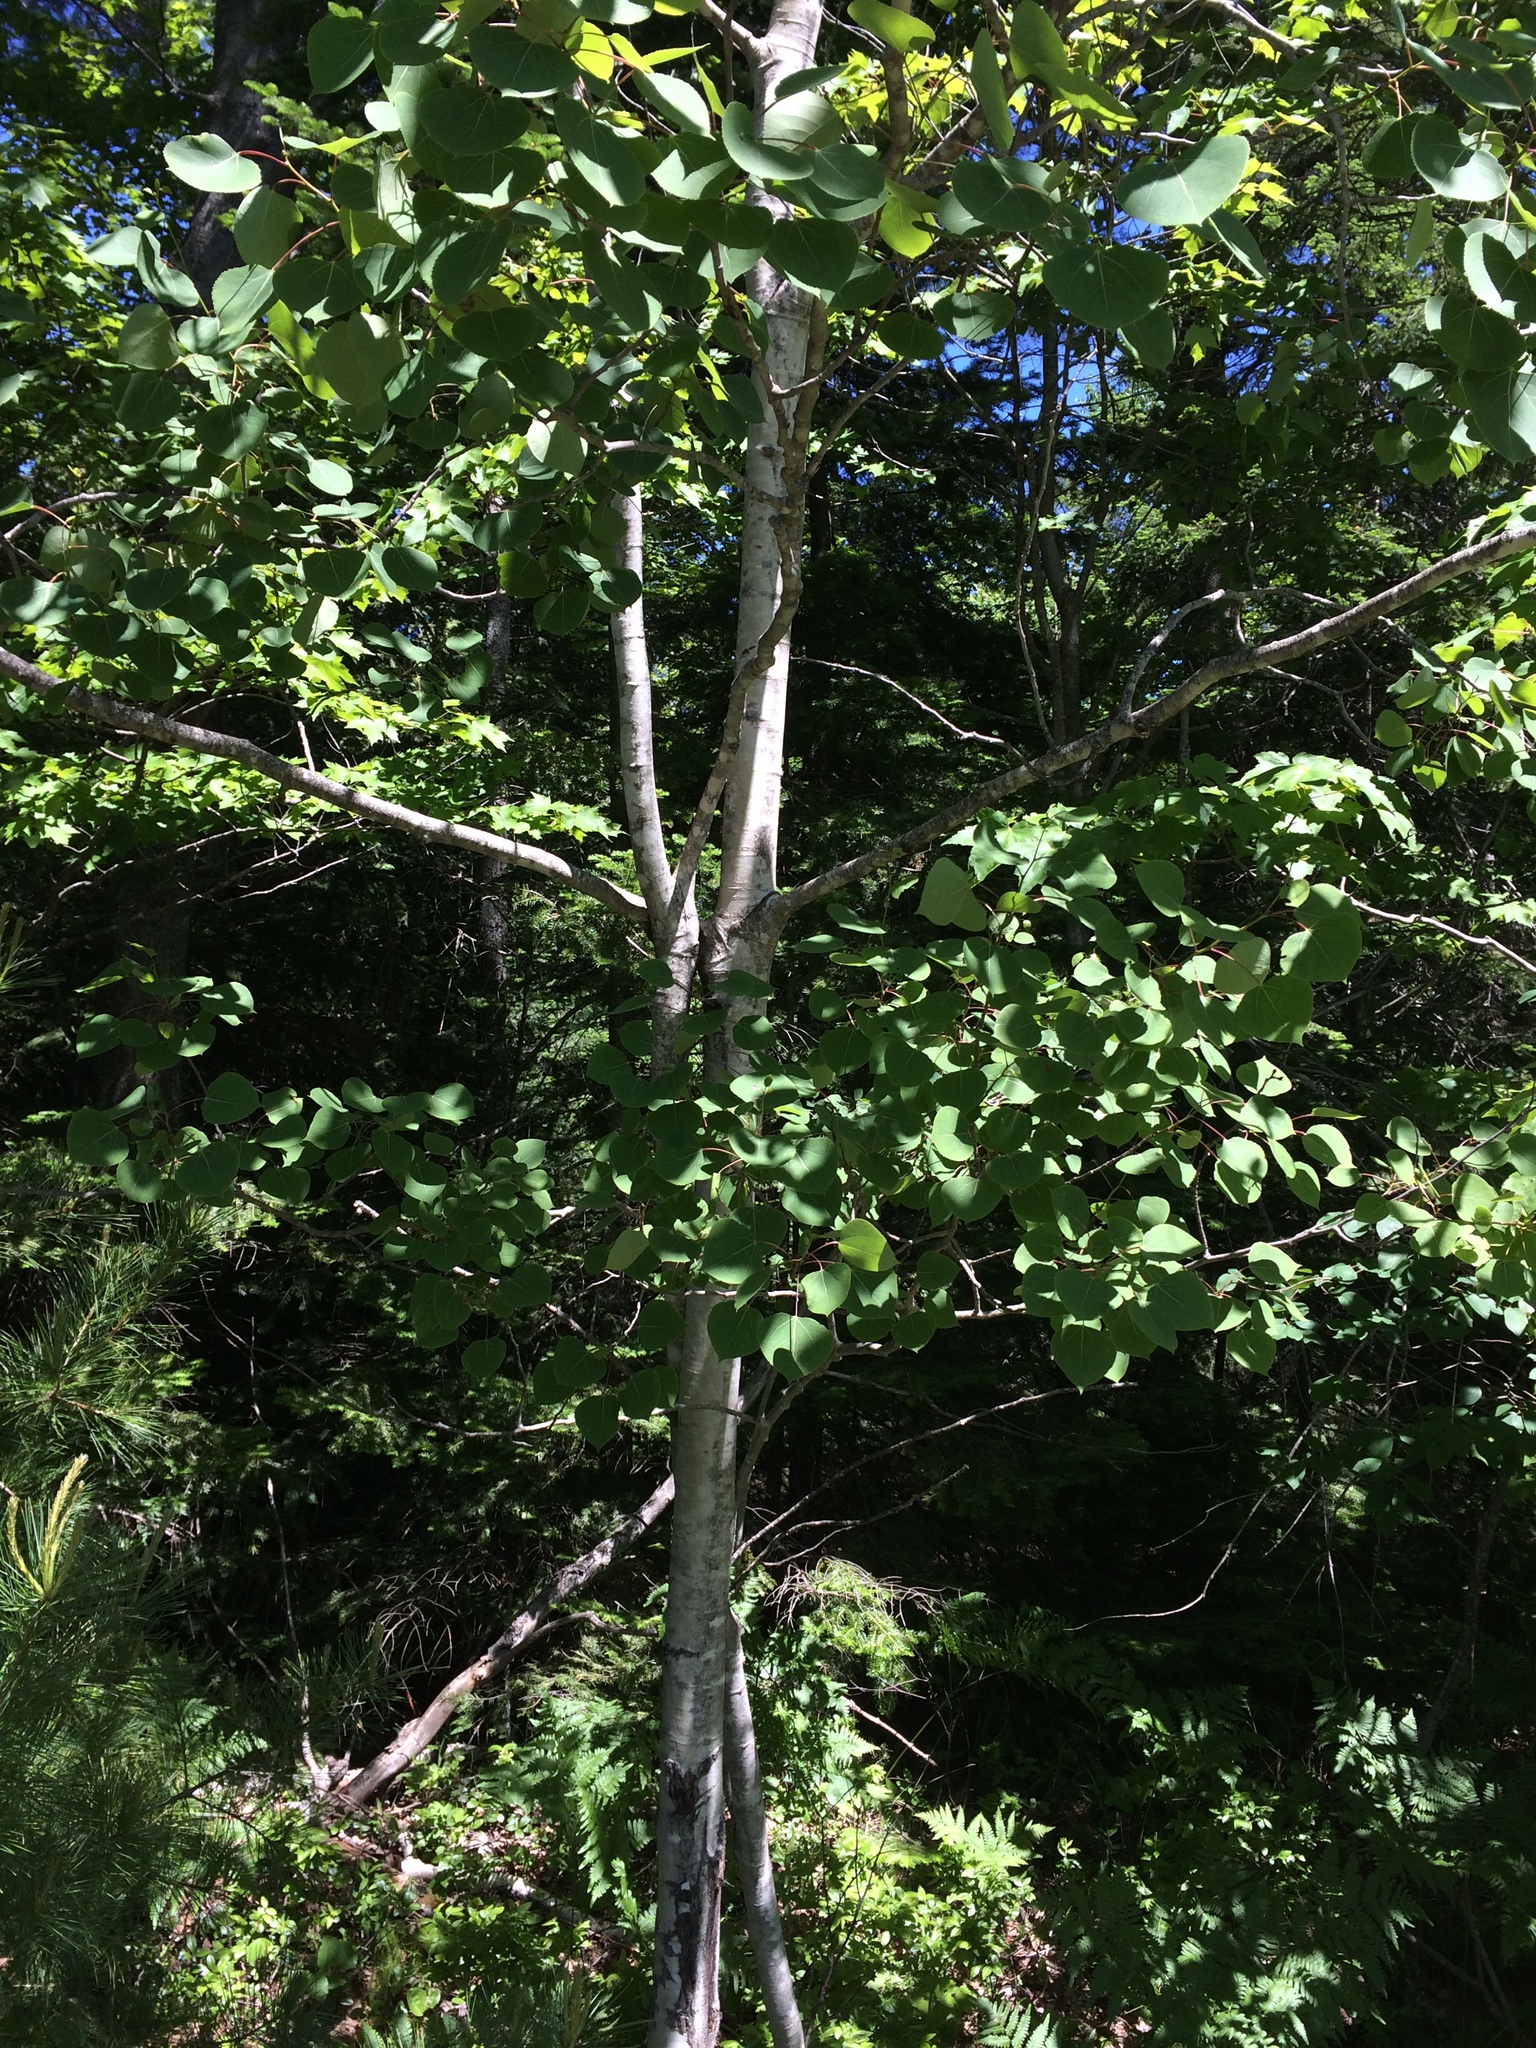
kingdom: Plantae
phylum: Tracheophyta
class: Magnoliopsida
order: Malpighiales
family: Salicaceae
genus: Populus
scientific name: Populus tremuloides
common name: Quaking aspen
